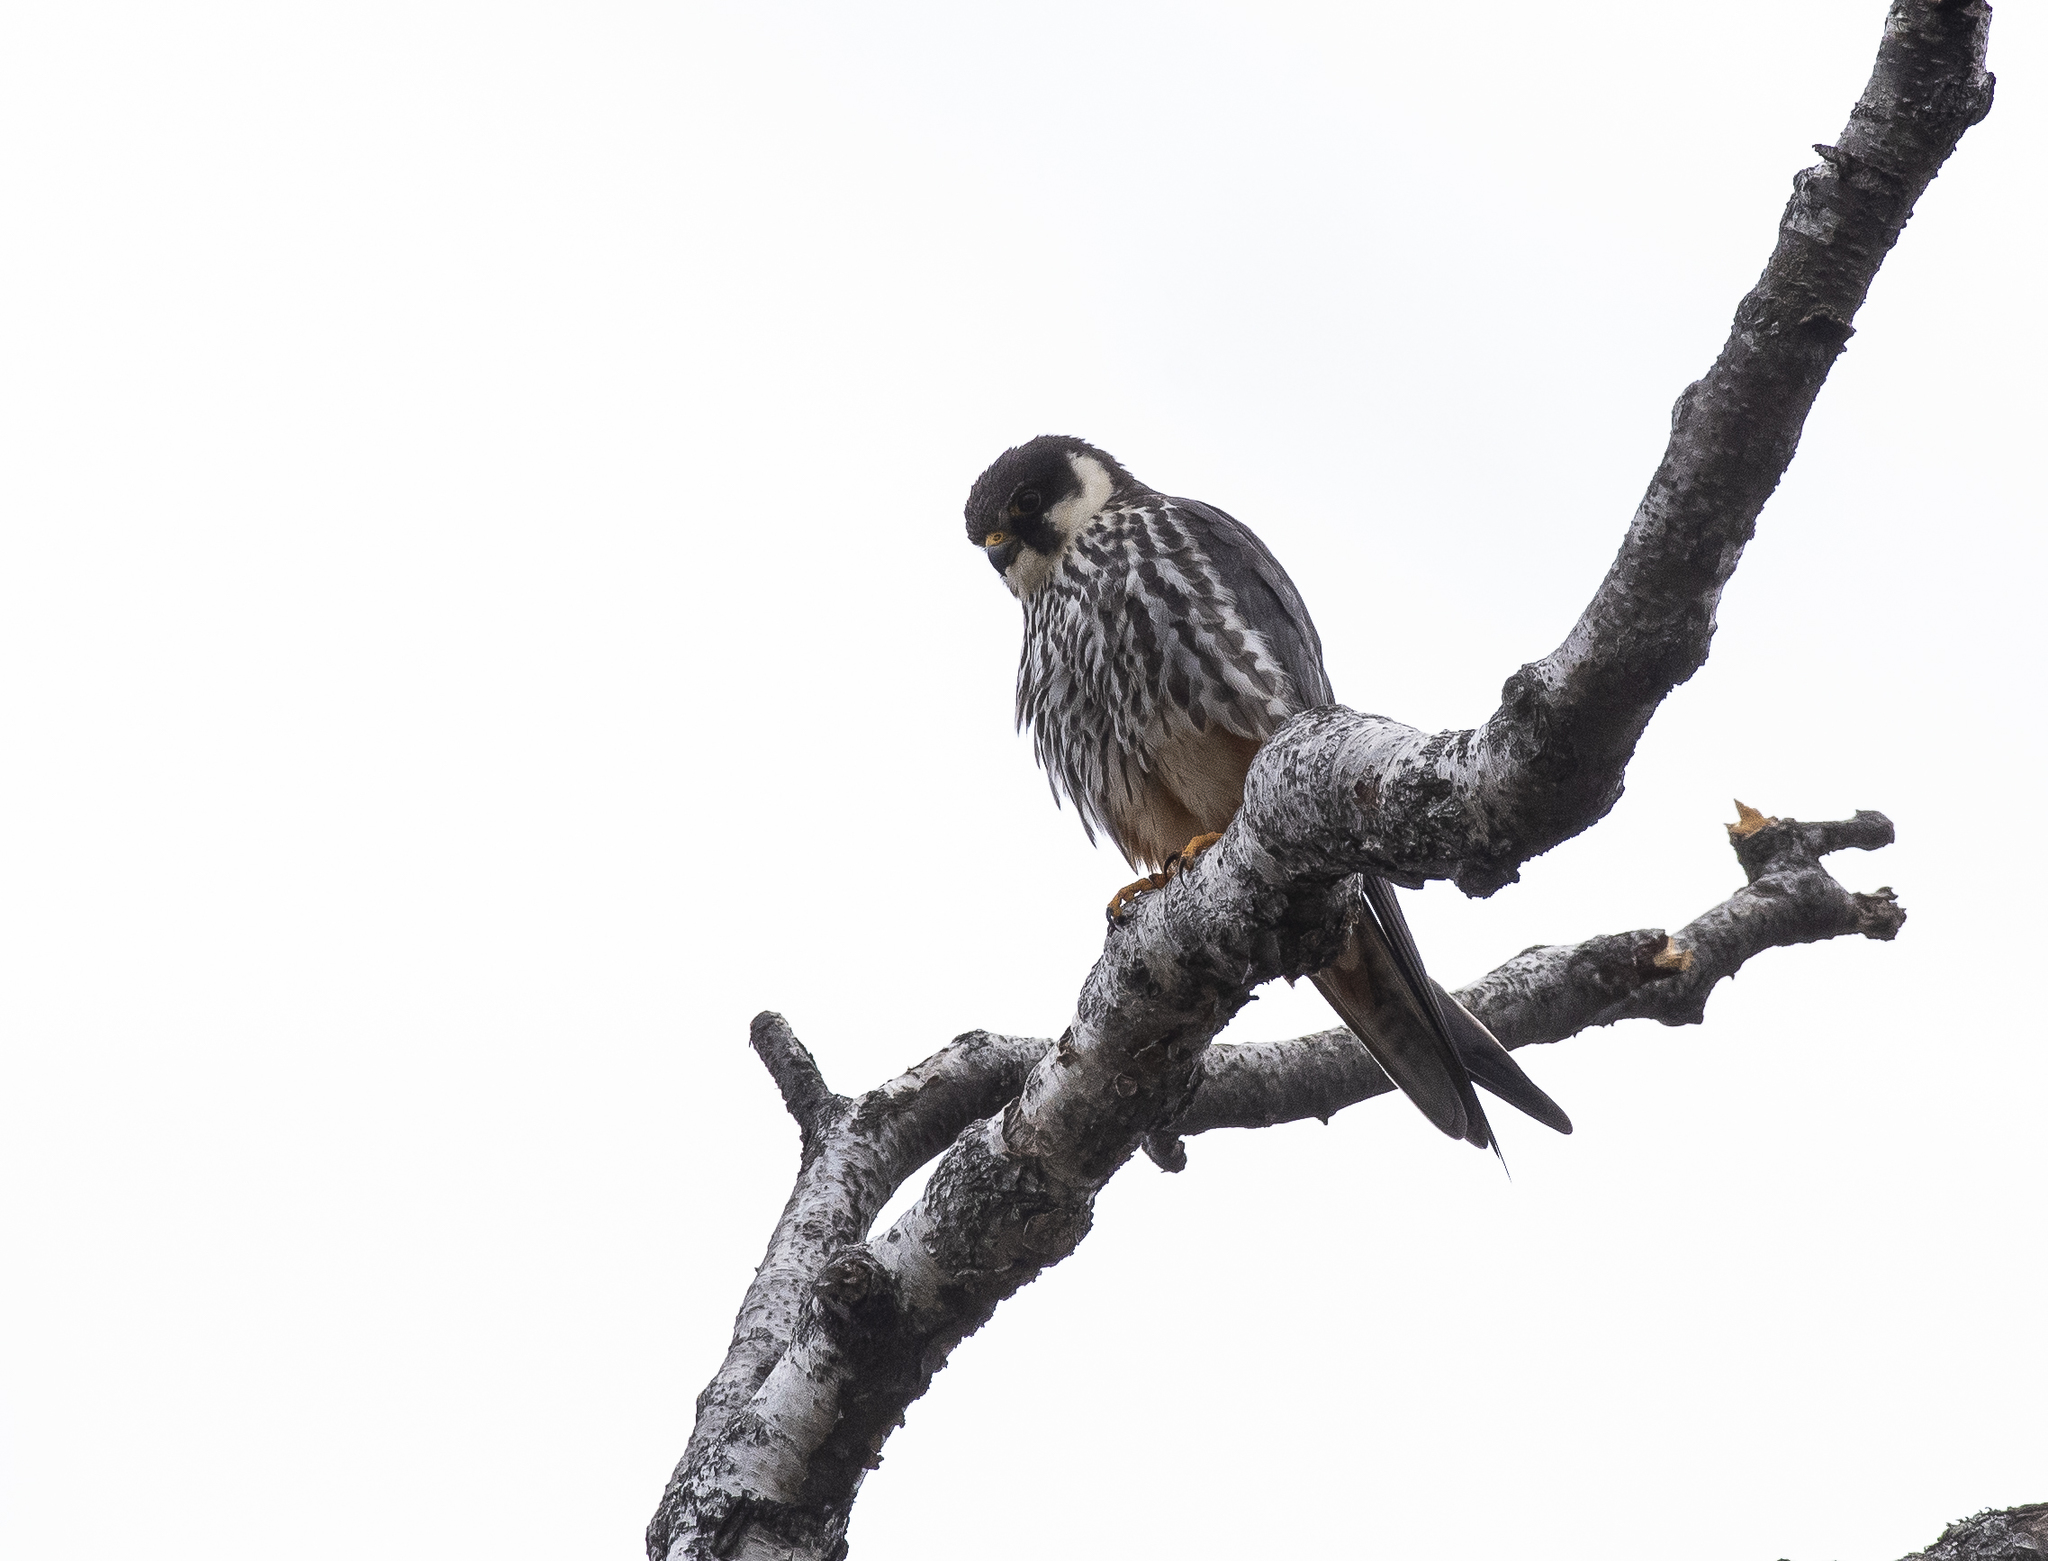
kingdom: Animalia
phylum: Chordata
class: Aves
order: Falconiformes
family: Falconidae
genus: Falco
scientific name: Falco subbuteo
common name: Eurasian hobby
